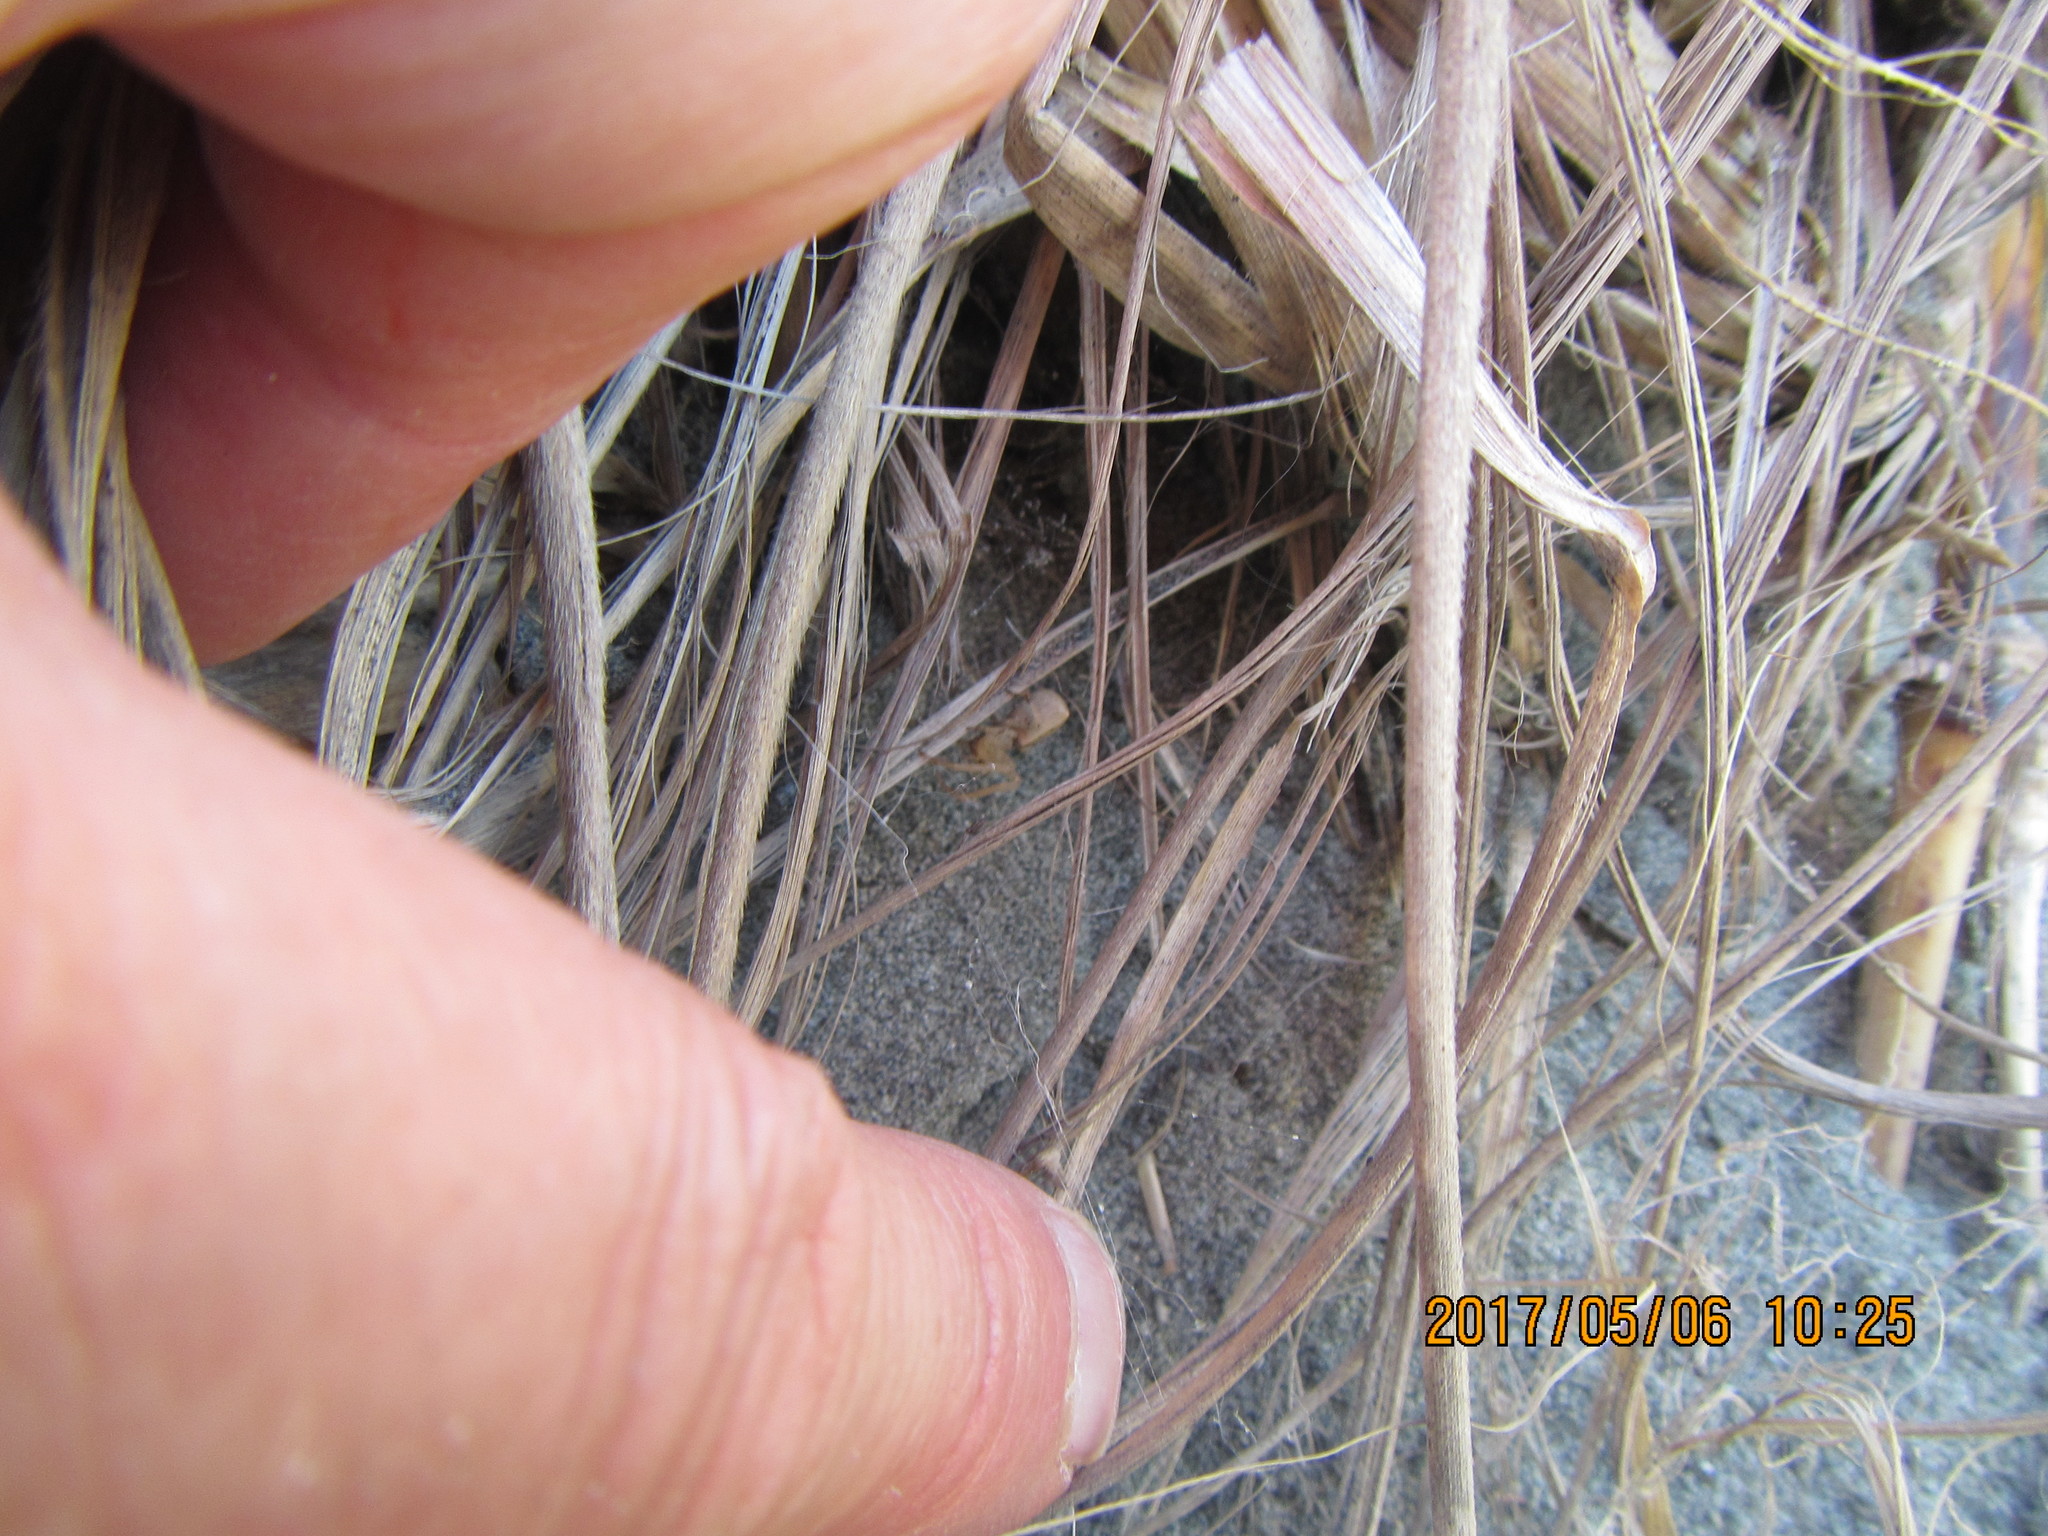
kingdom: Animalia
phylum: Arthropoda
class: Arachnida
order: Araneae
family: Thomisidae
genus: Sidymella
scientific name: Sidymella trapezia
